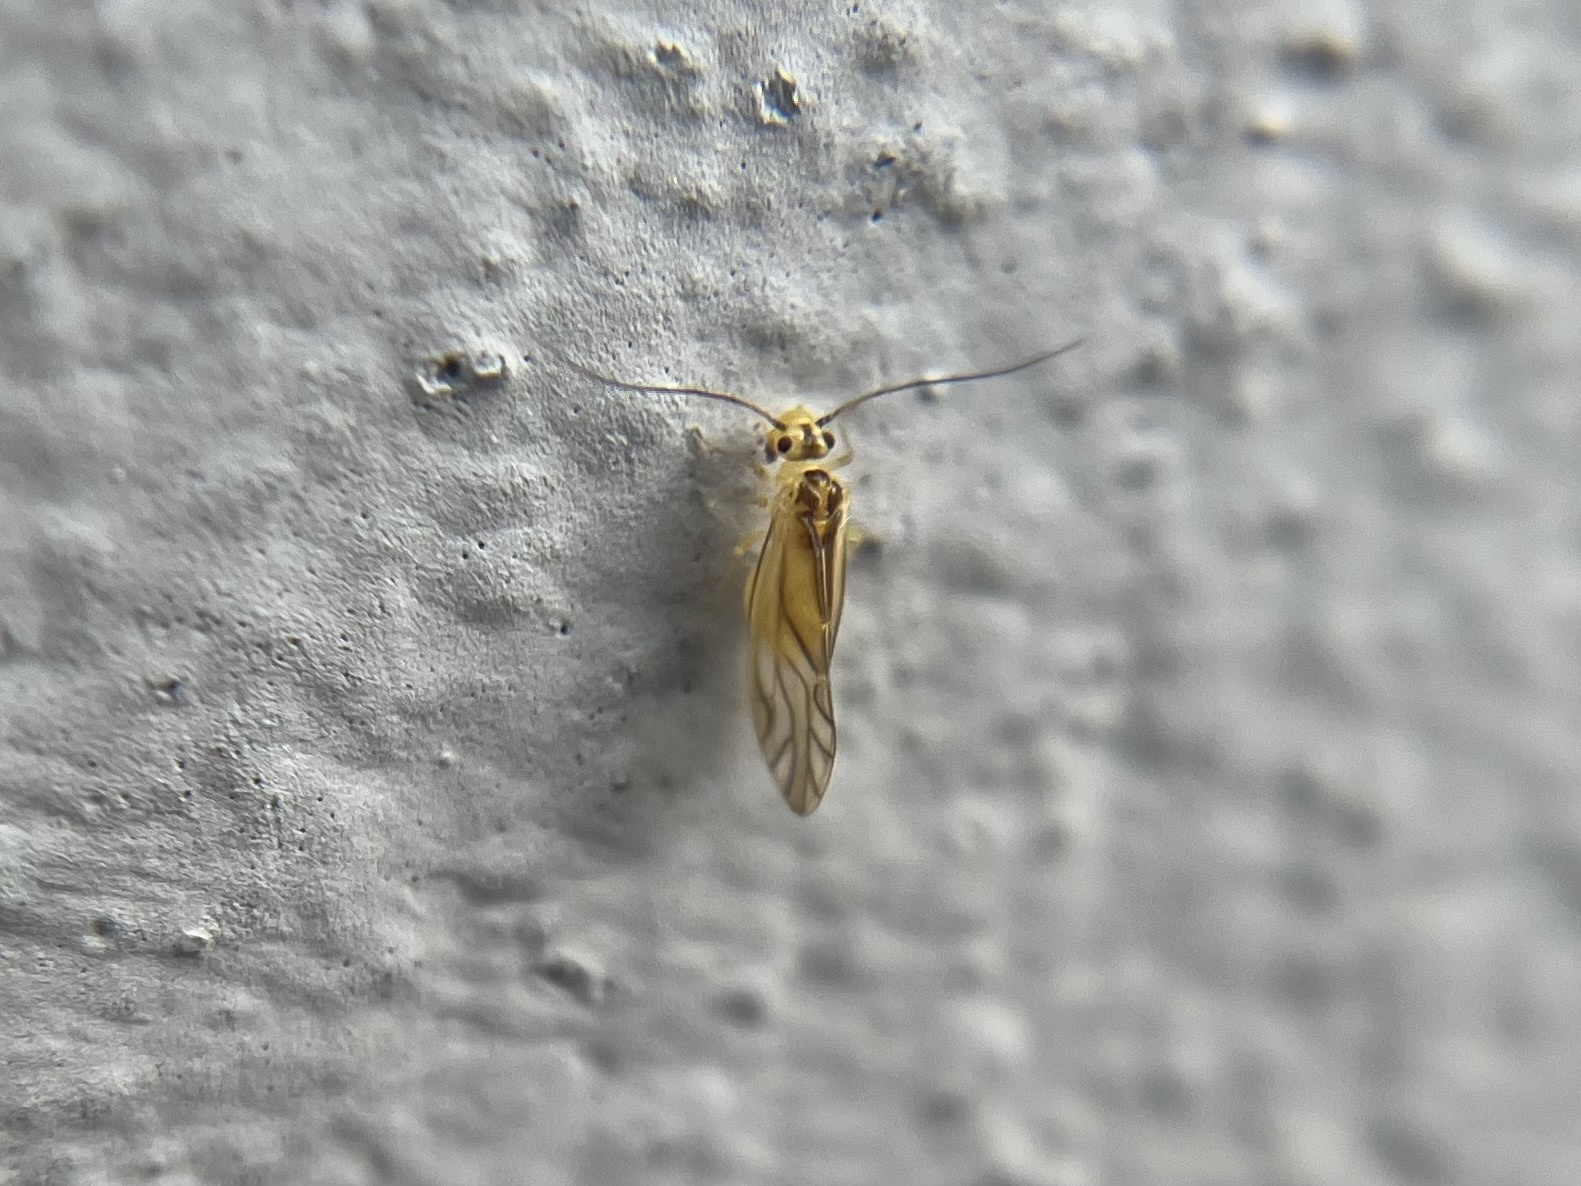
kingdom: Animalia
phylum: Arthropoda
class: Insecta
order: Psocodea
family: Caeciliusidae
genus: Valenzuela
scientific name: Valenzuela flavidus
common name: Yellow barklouse
